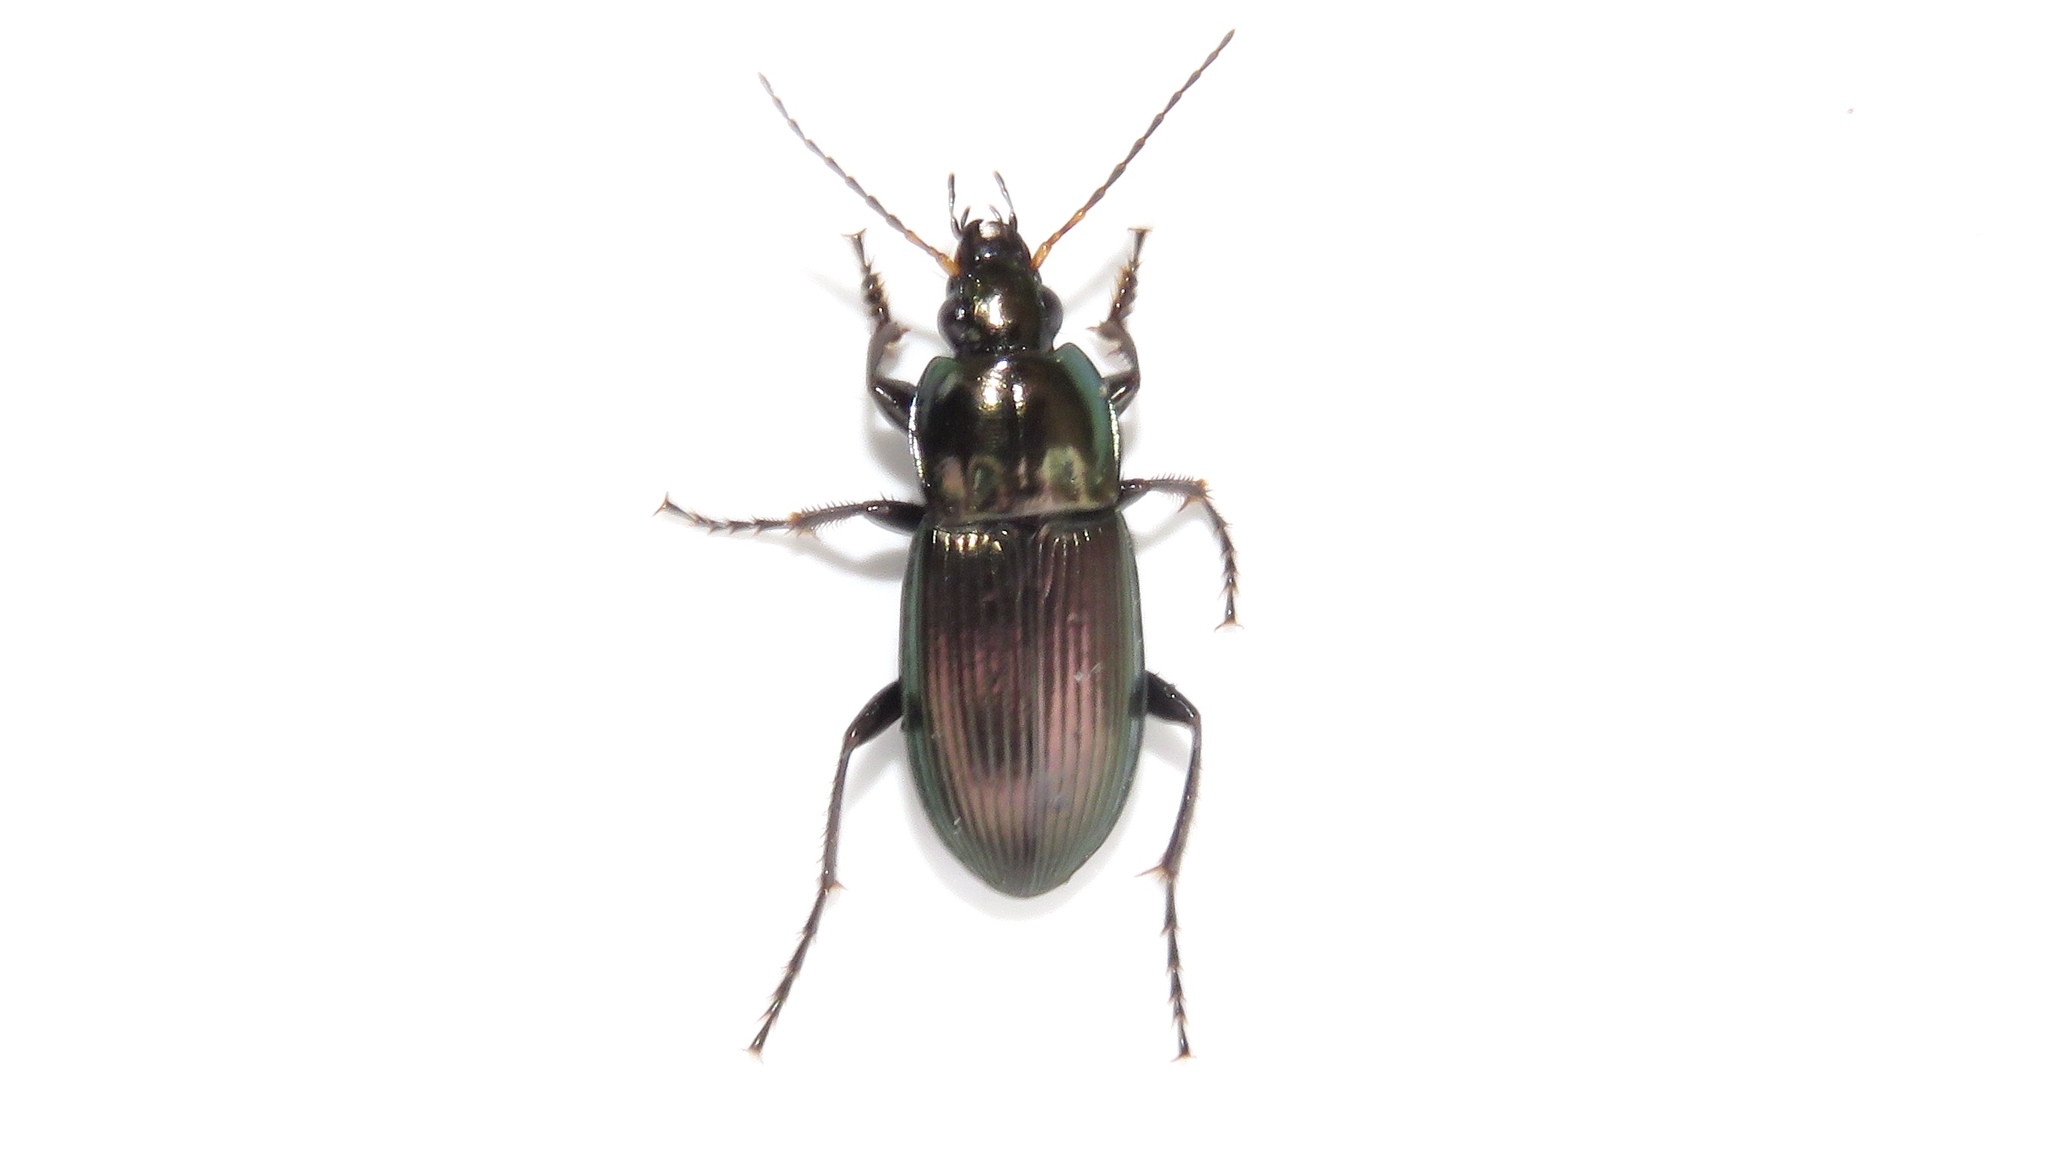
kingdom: Animalia
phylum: Arthropoda
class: Insecta
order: Coleoptera
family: Carabidae
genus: Poecilus
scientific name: Poecilus lucublandus
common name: Woodland ground beetle
